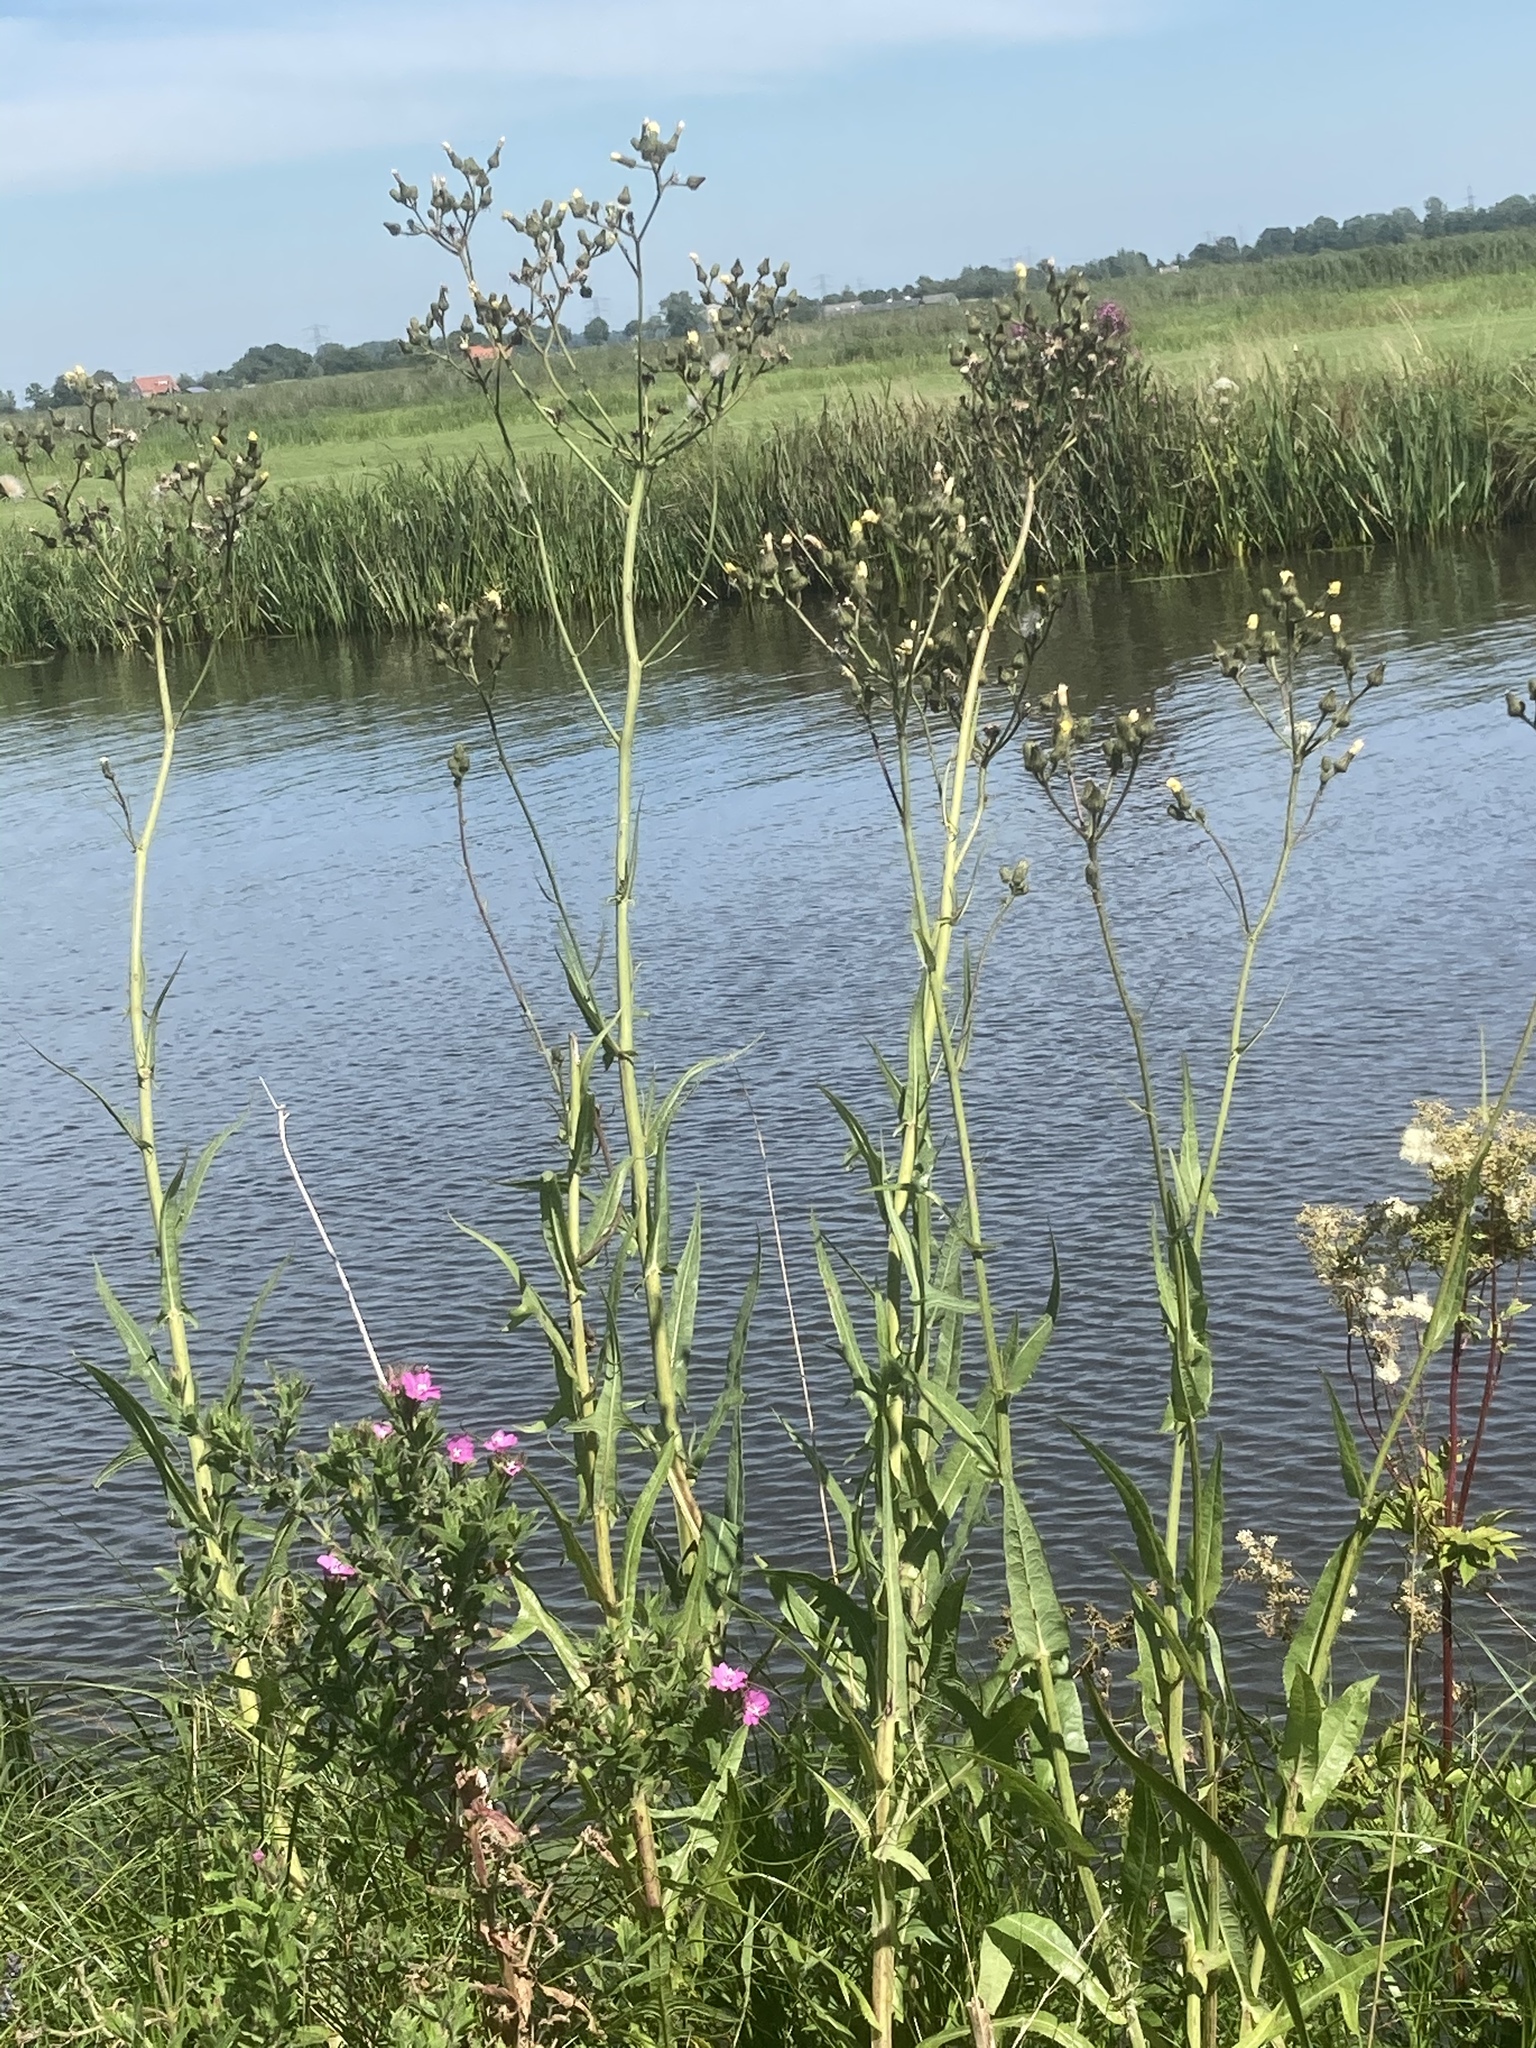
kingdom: Plantae
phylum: Tracheophyta
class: Magnoliopsida
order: Asterales
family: Asteraceae
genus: Sonchus
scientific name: Sonchus palustris
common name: Marsh sow-thistle
